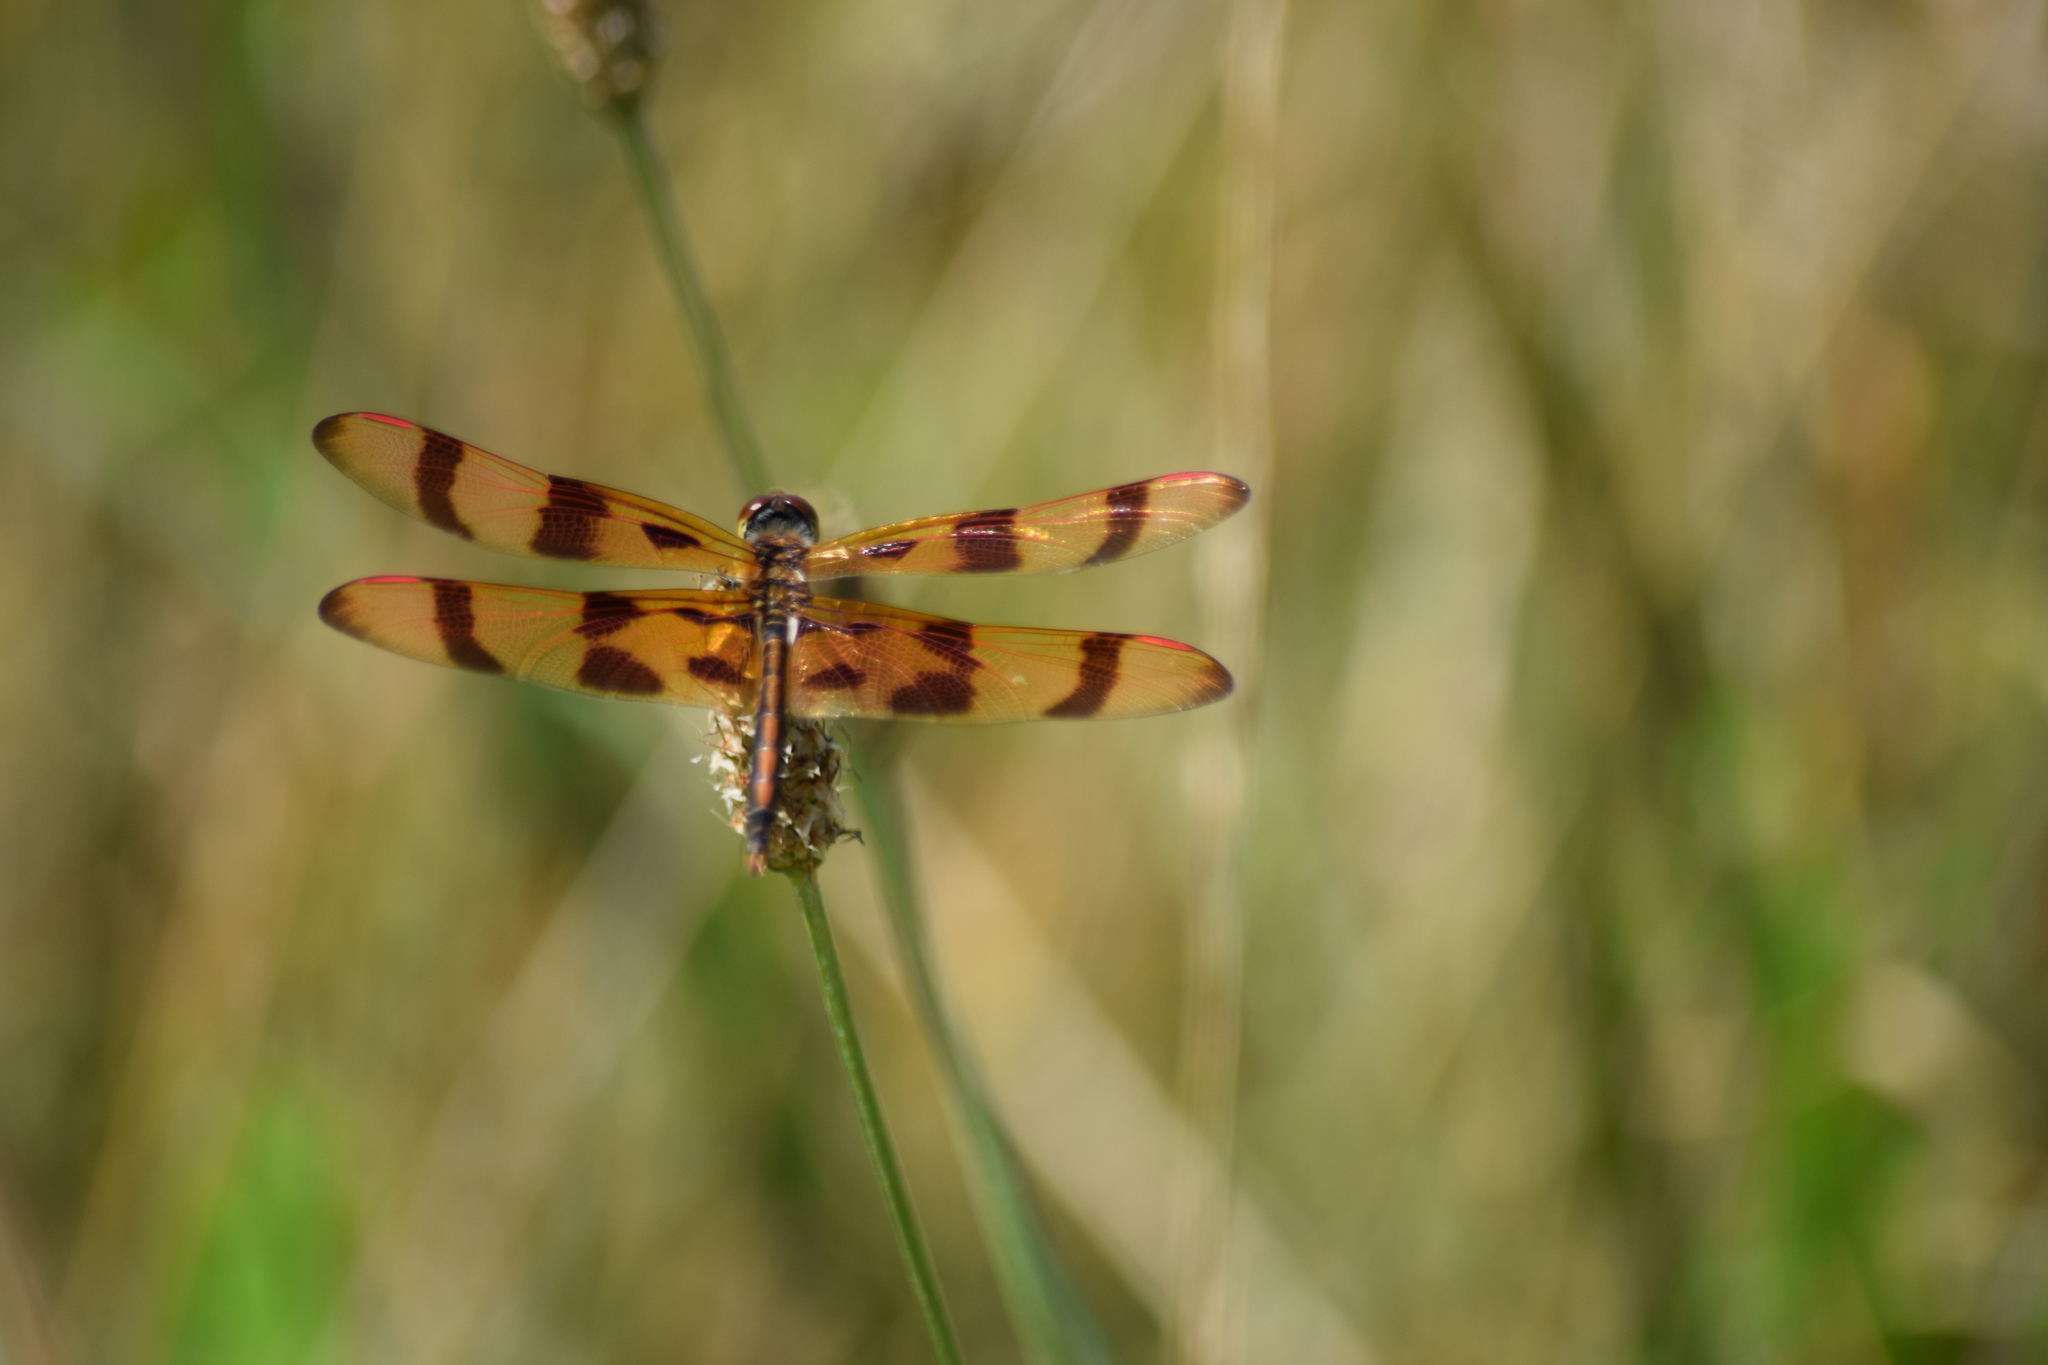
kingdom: Animalia
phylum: Arthropoda
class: Insecta
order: Odonata
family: Libellulidae
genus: Celithemis
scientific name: Celithemis eponina
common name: Halloween pennant
